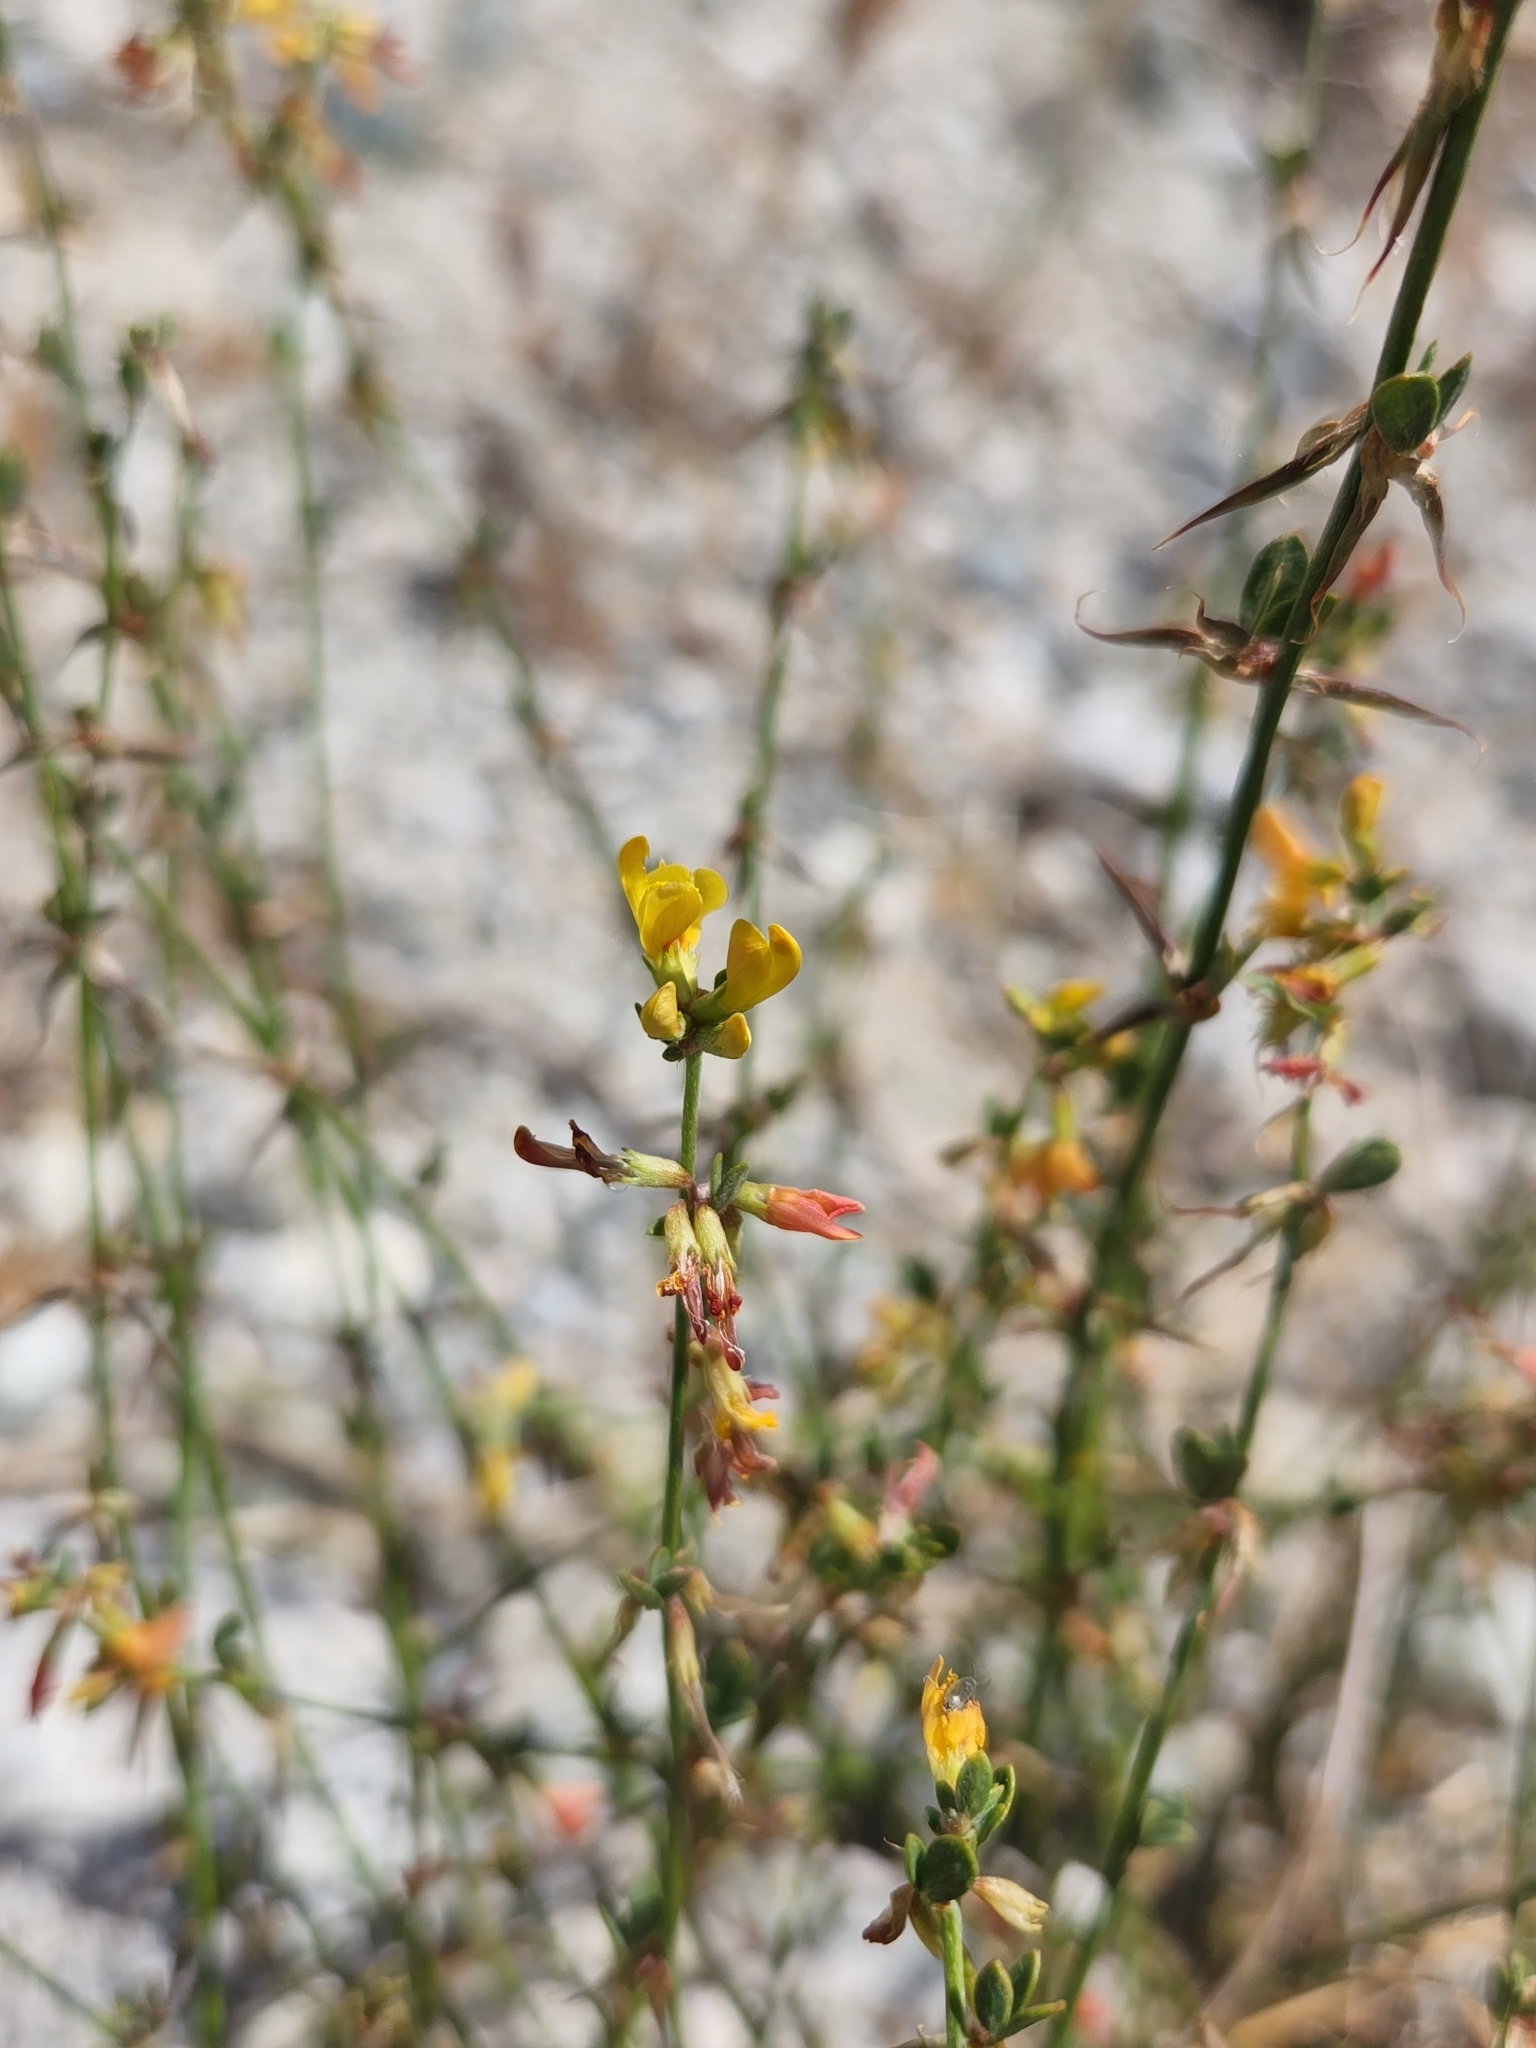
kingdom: Plantae
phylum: Tracheophyta
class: Magnoliopsida
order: Fabales
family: Fabaceae
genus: Acmispon
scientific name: Acmispon glaber
